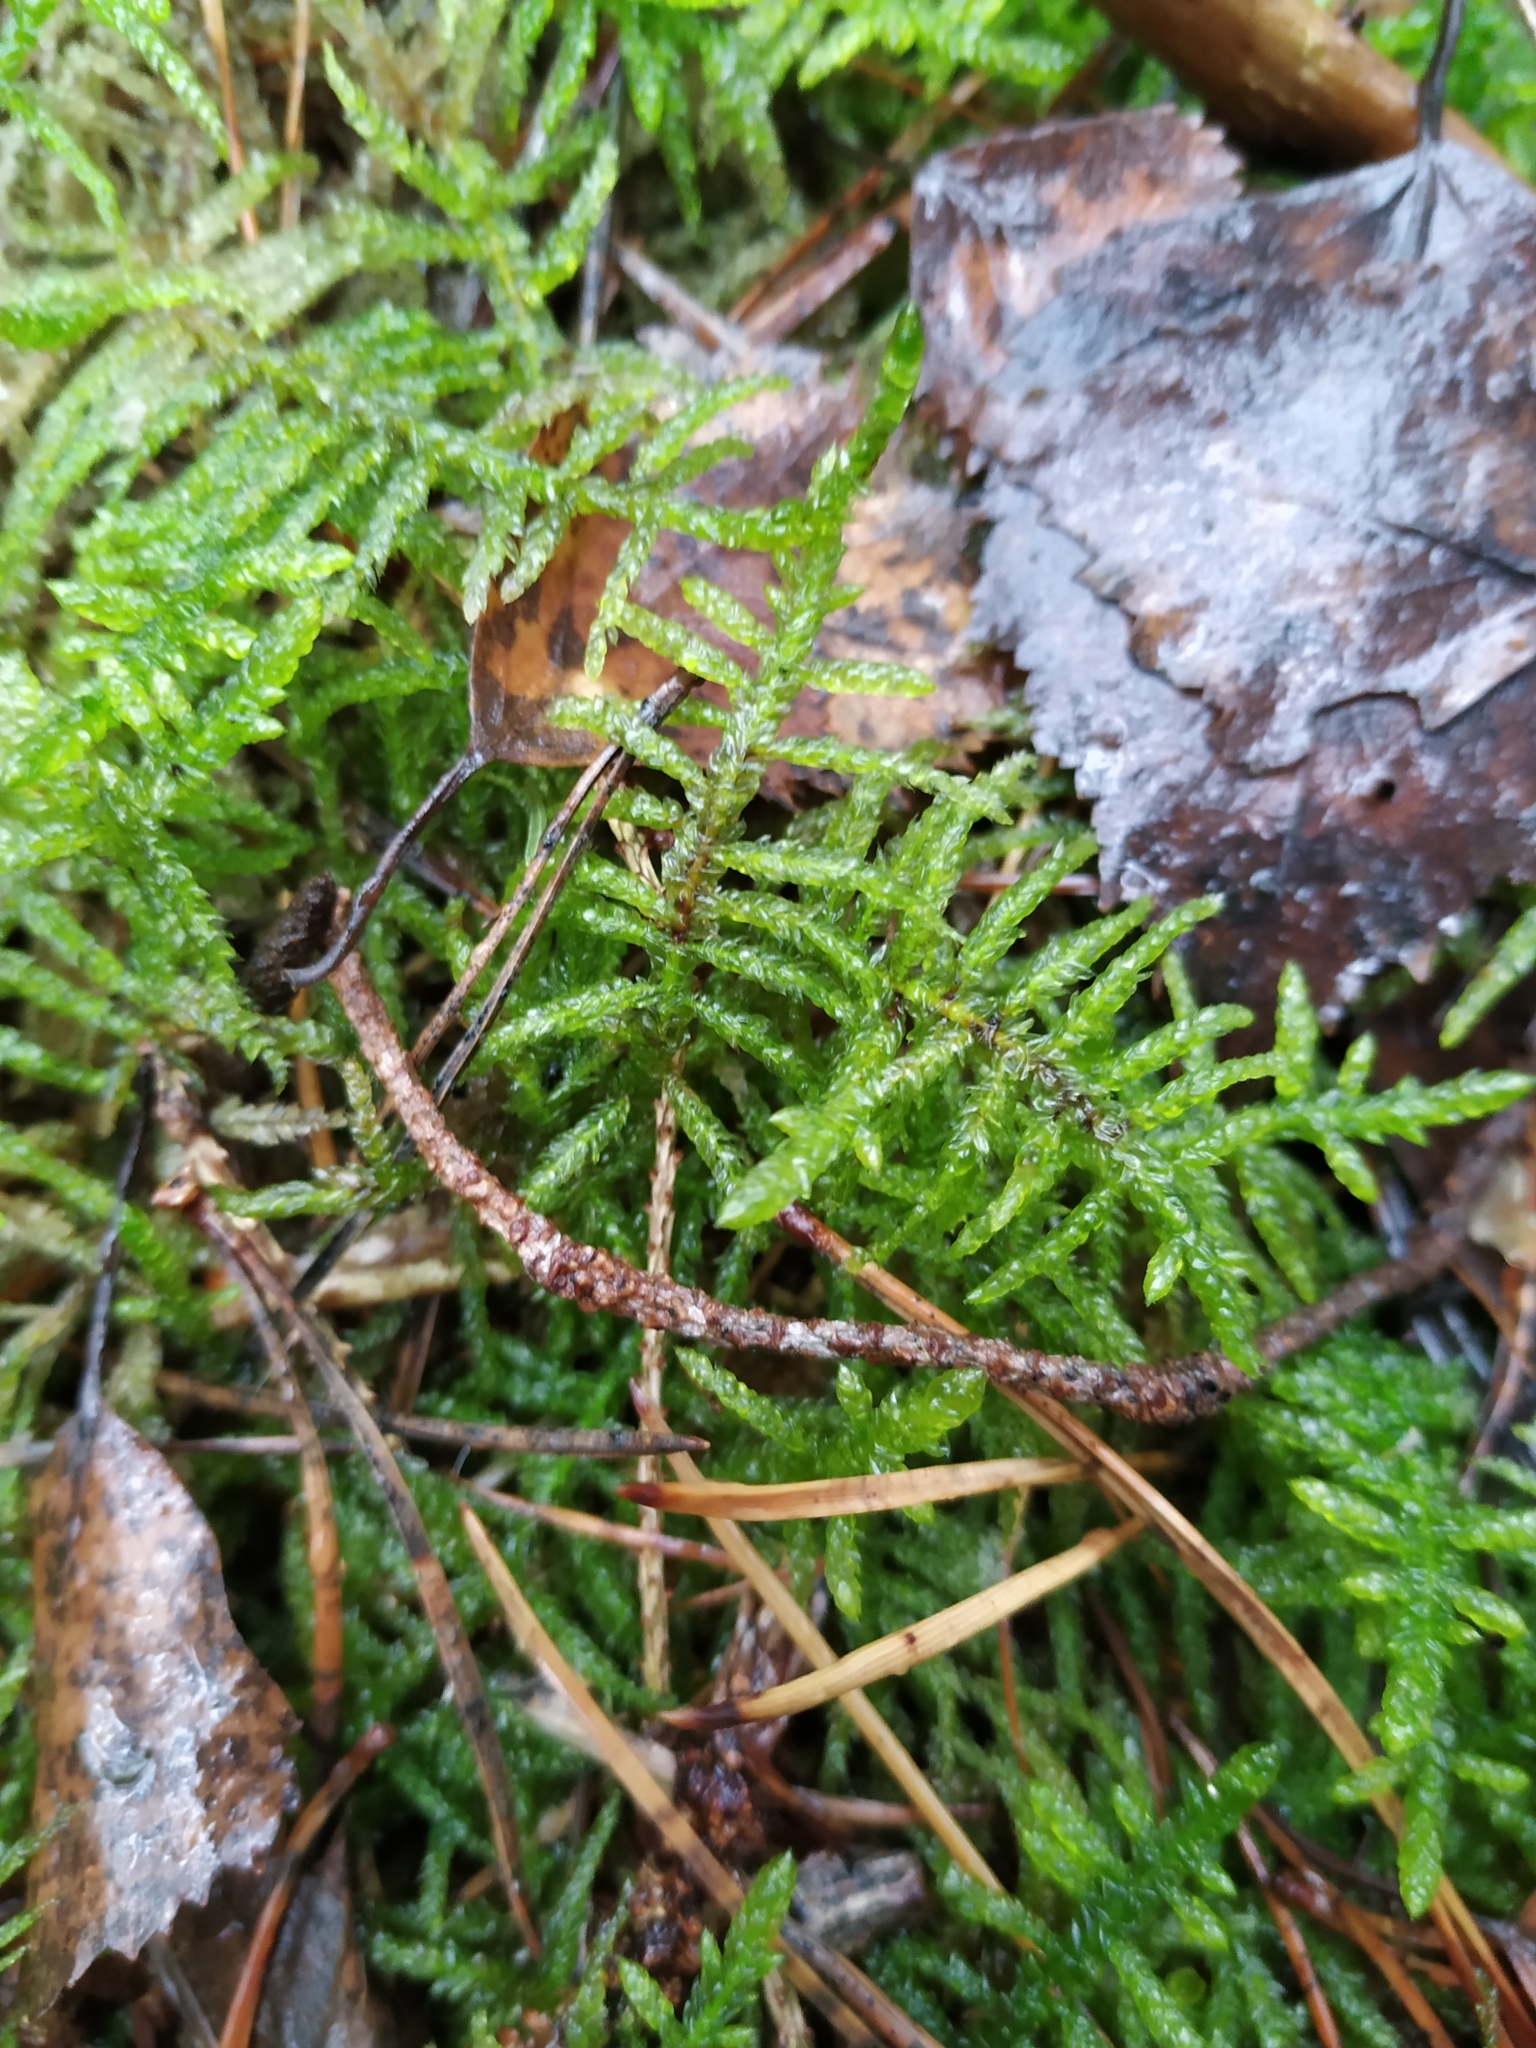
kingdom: Plantae
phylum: Bryophyta
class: Bryopsida
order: Hypnales
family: Brachytheciaceae
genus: Pseudoscleropodium
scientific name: Pseudoscleropodium purum
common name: Neat feather-moss
